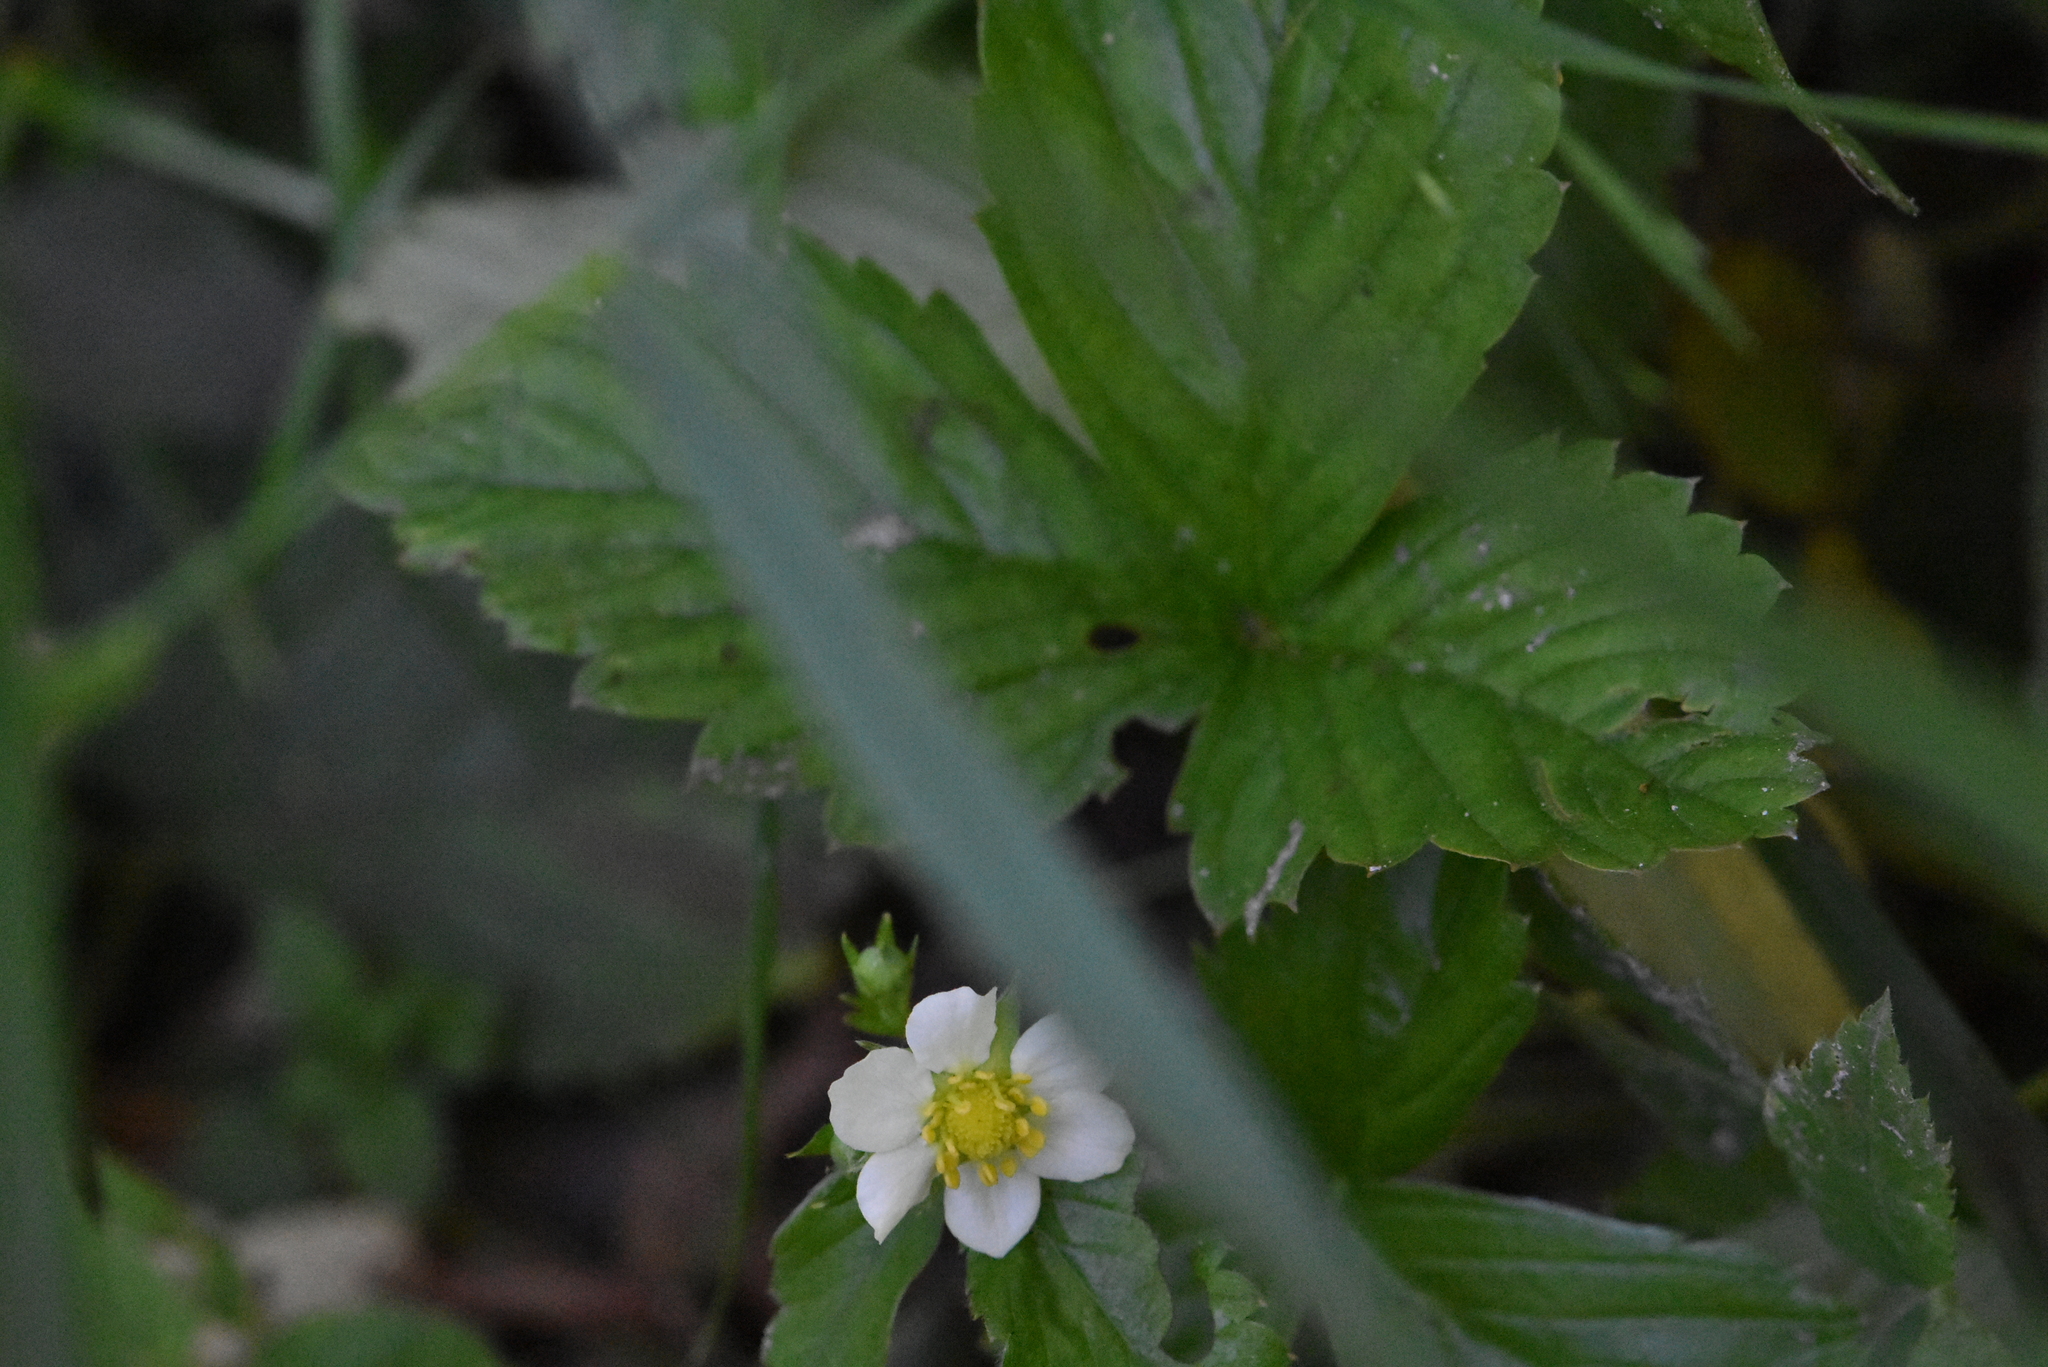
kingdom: Plantae
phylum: Tracheophyta
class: Magnoliopsida
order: Rosales
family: Rosaceae
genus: Fragaria
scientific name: Fragaria vesca
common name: Wild strawberry
